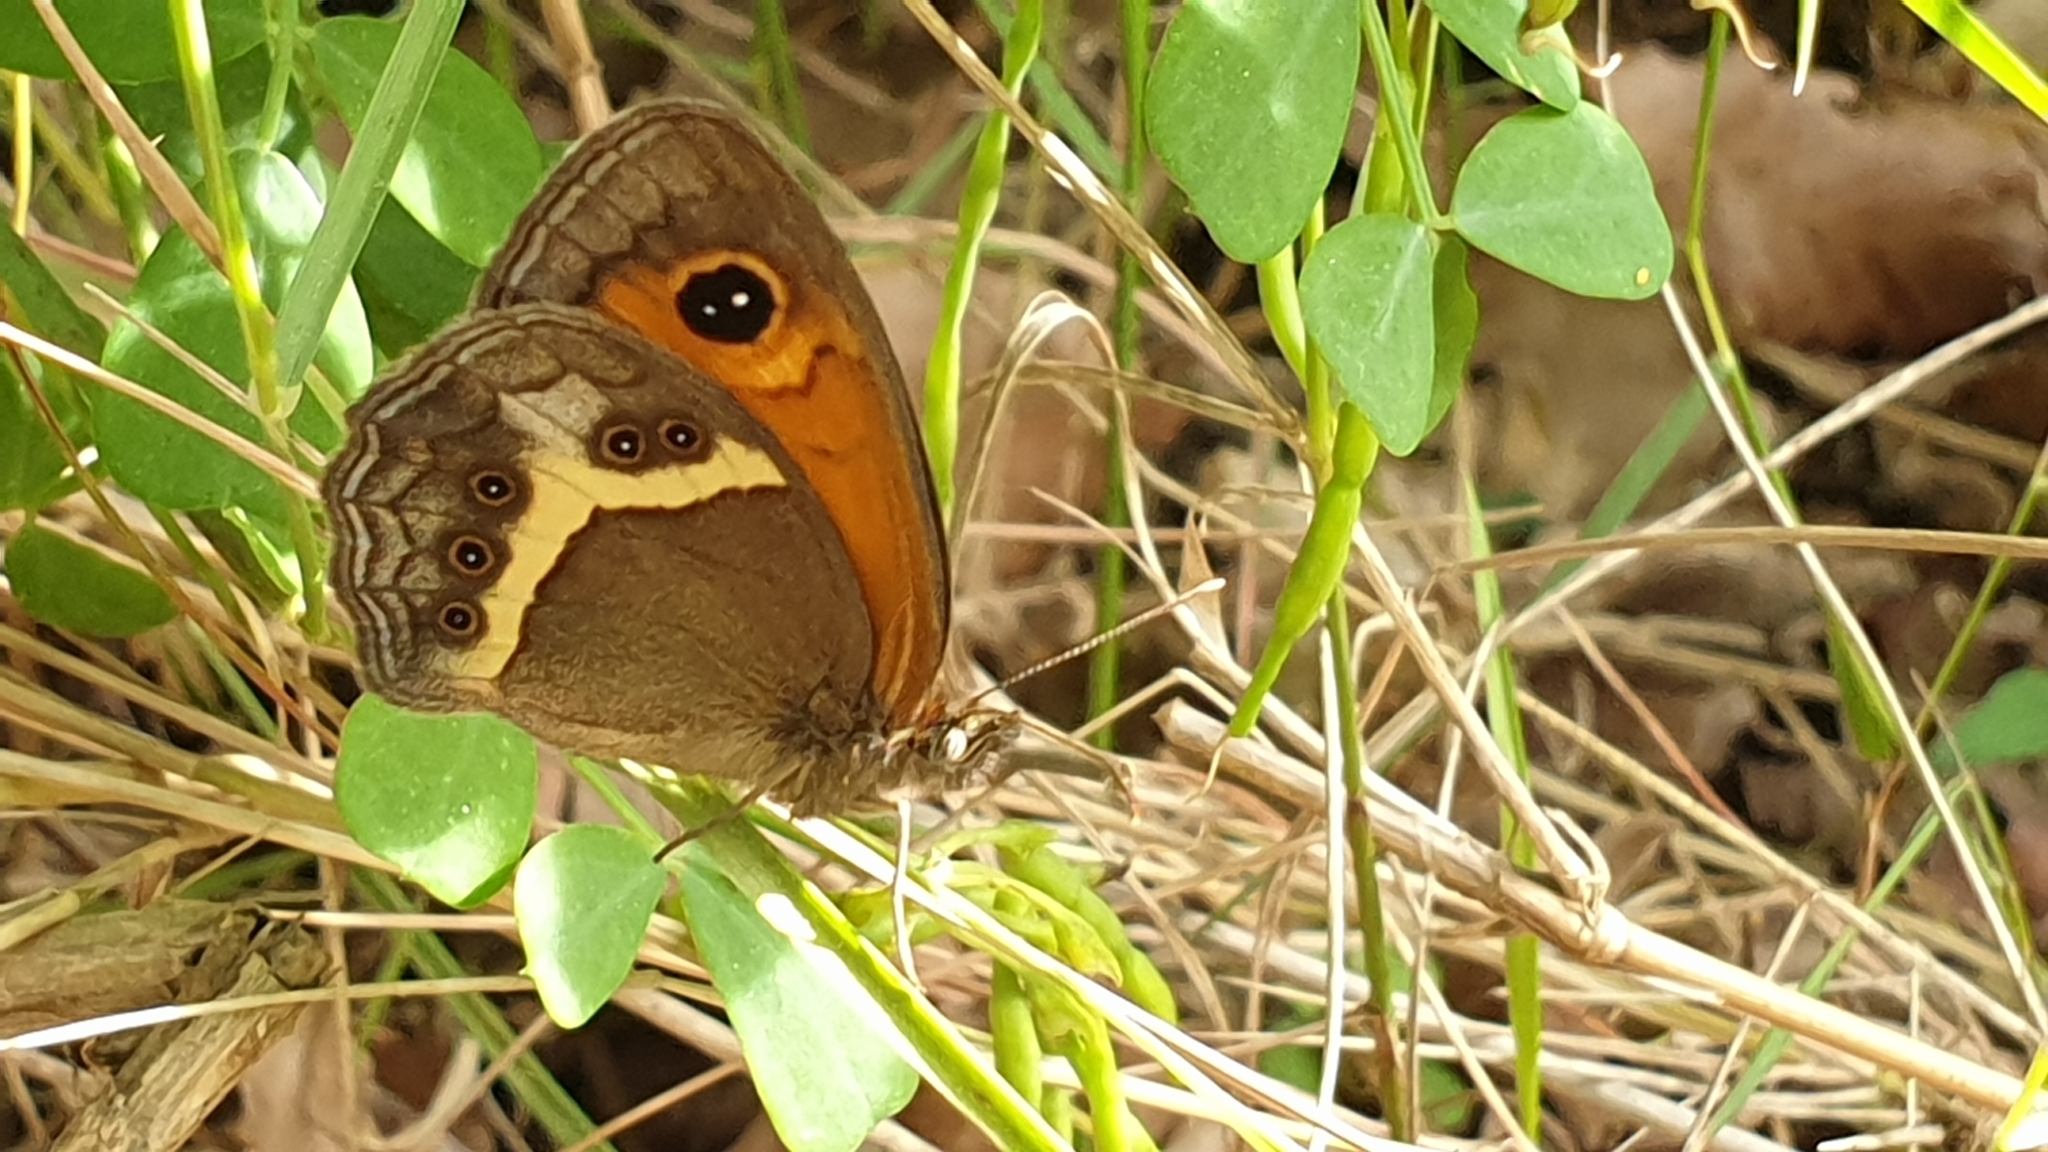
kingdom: Animalia
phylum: Arthropoda
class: Insecta
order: Lepidoptera
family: Nymphalidae
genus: Pyronia
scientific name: Pyronia bathseba
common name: Spanish gatekeeper
